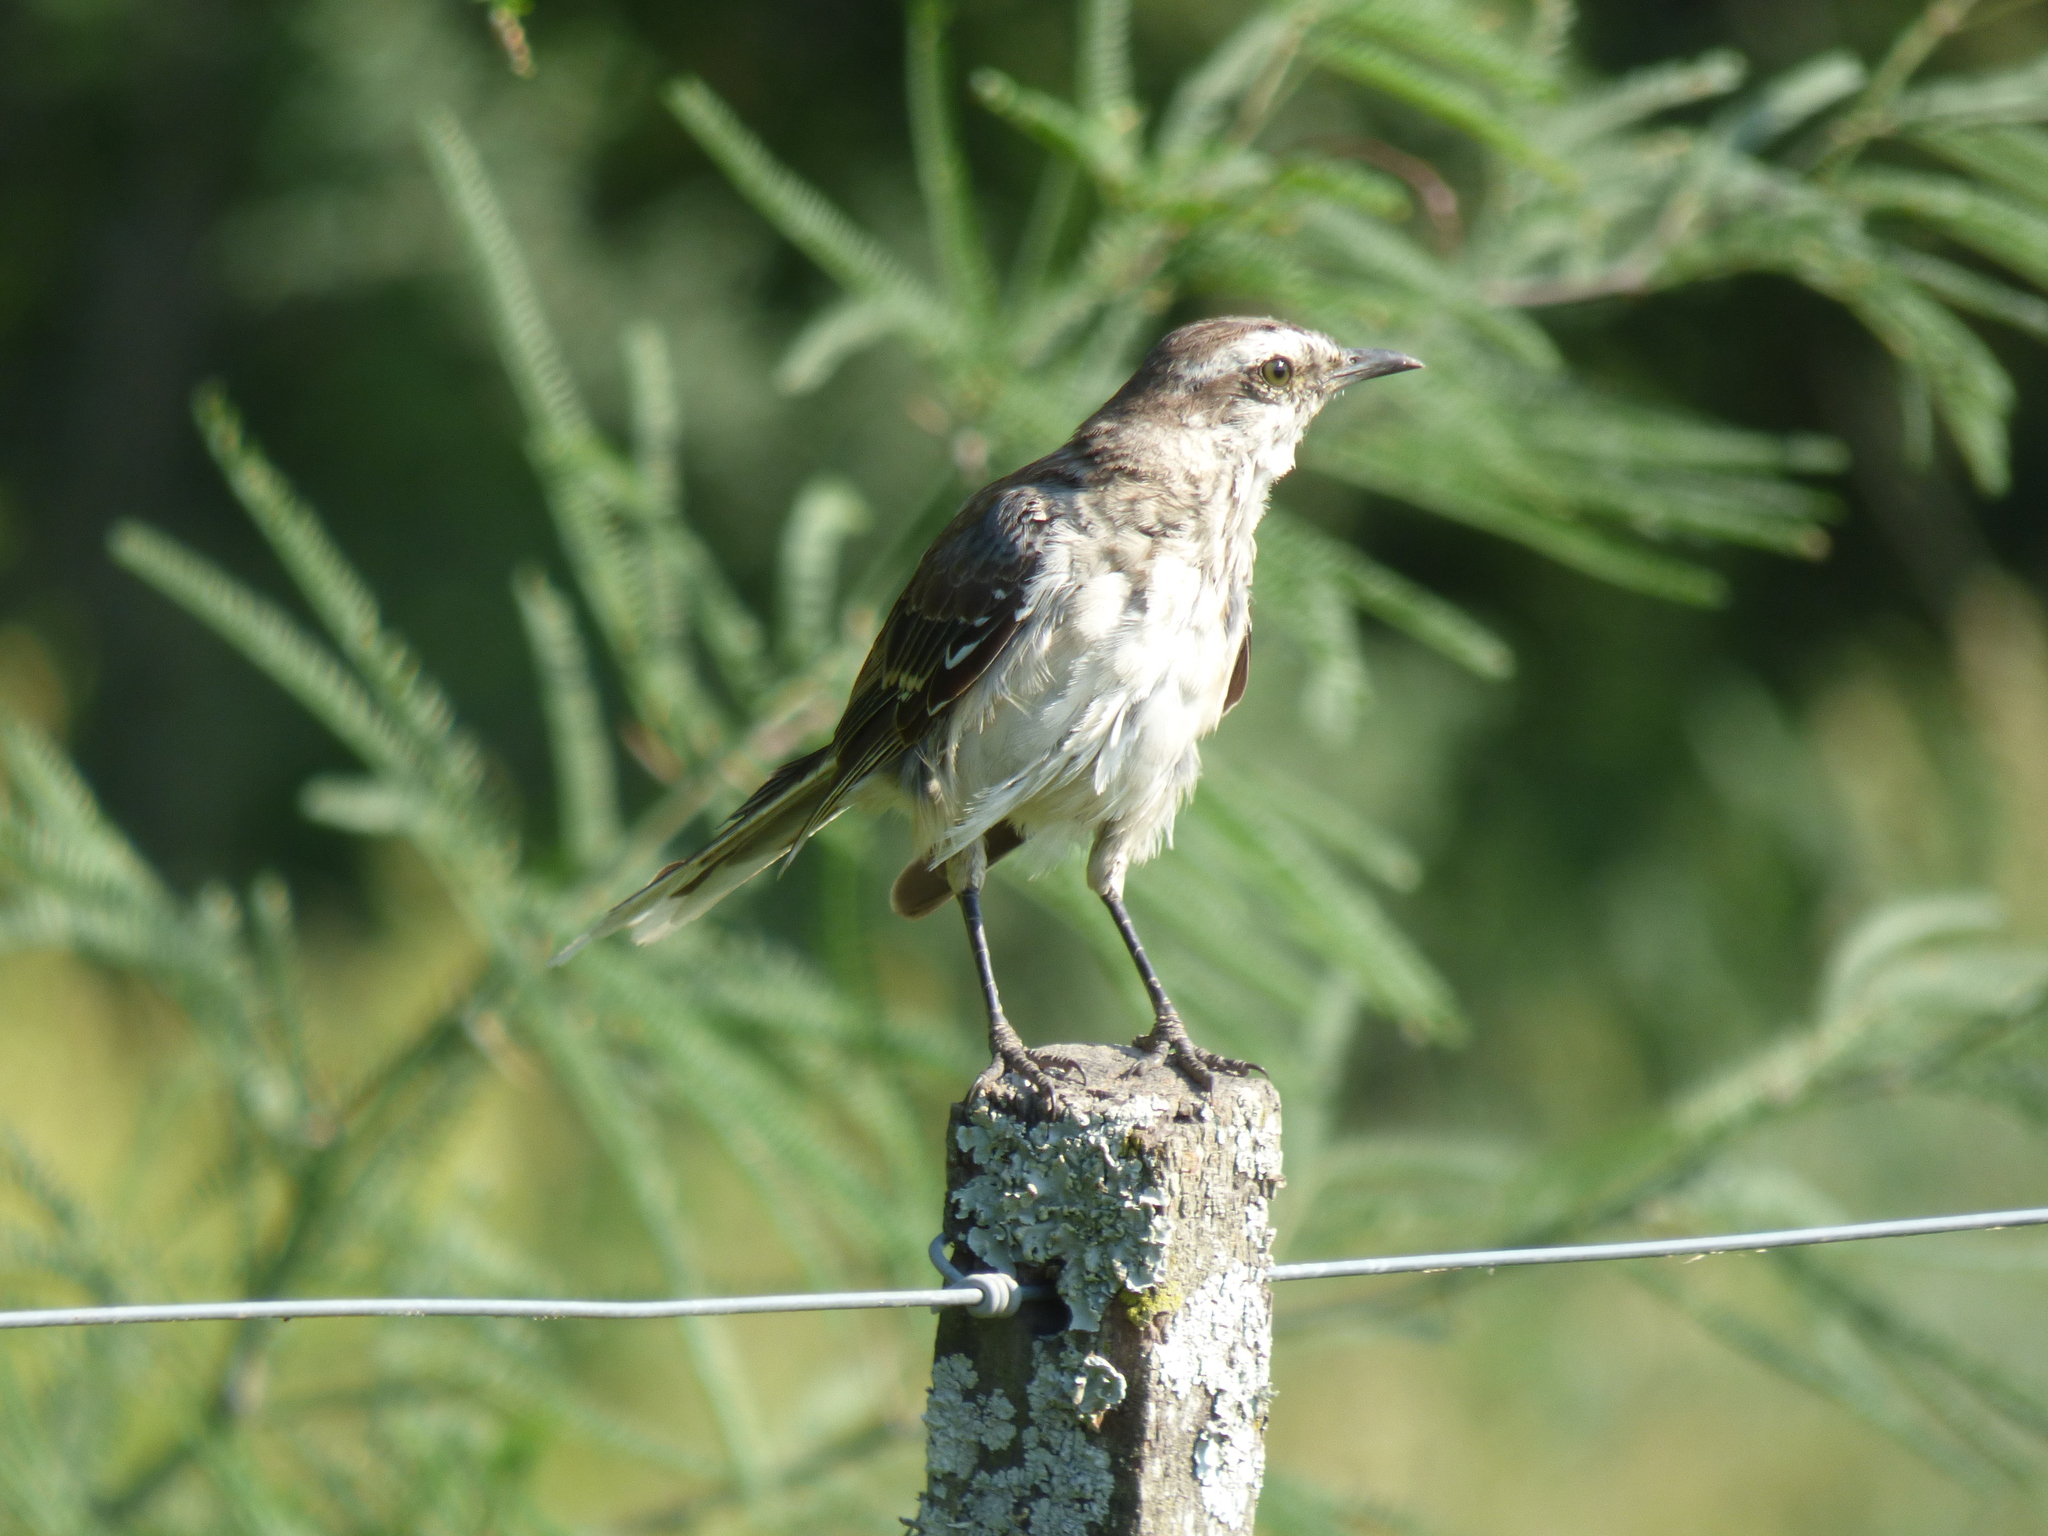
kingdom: Animalia
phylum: Chordata
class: Aves
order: Passeriformes
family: Mimidae
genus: Mimus
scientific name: Mimus saturninus
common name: Chalk-browed mockingbird
